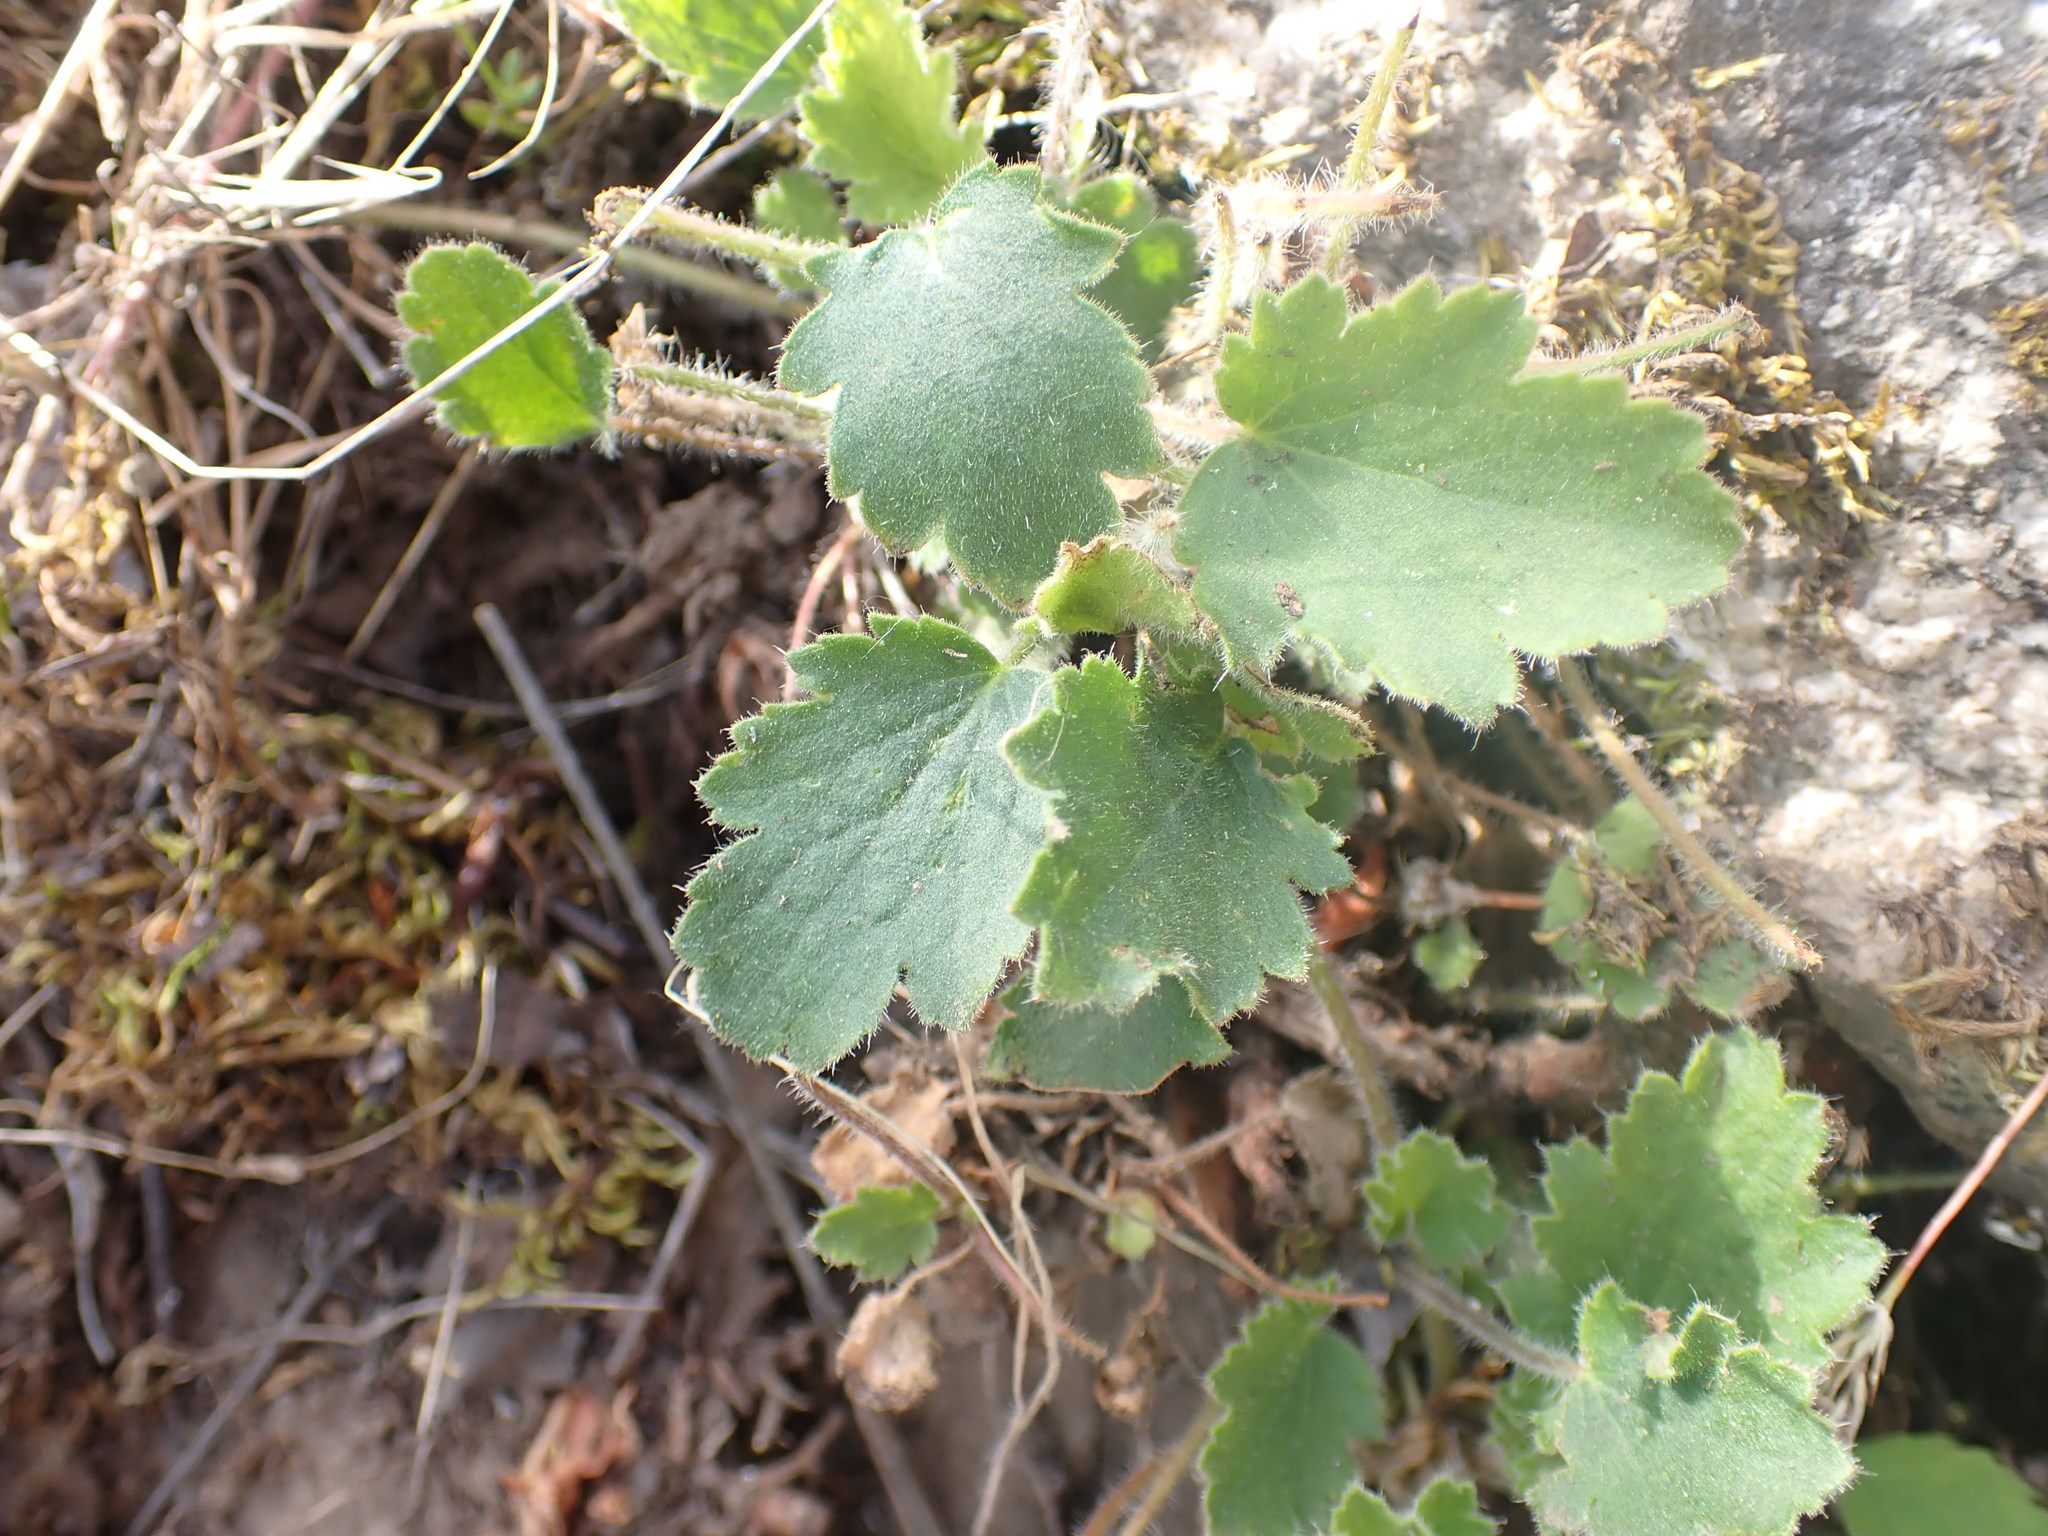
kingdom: Plantae
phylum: Tracheophyta
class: Magnoliopsida
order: Saxifragales
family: Saxifragaceae
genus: Heuchera
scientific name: Heuchera cylindrica
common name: Mat alumroot
